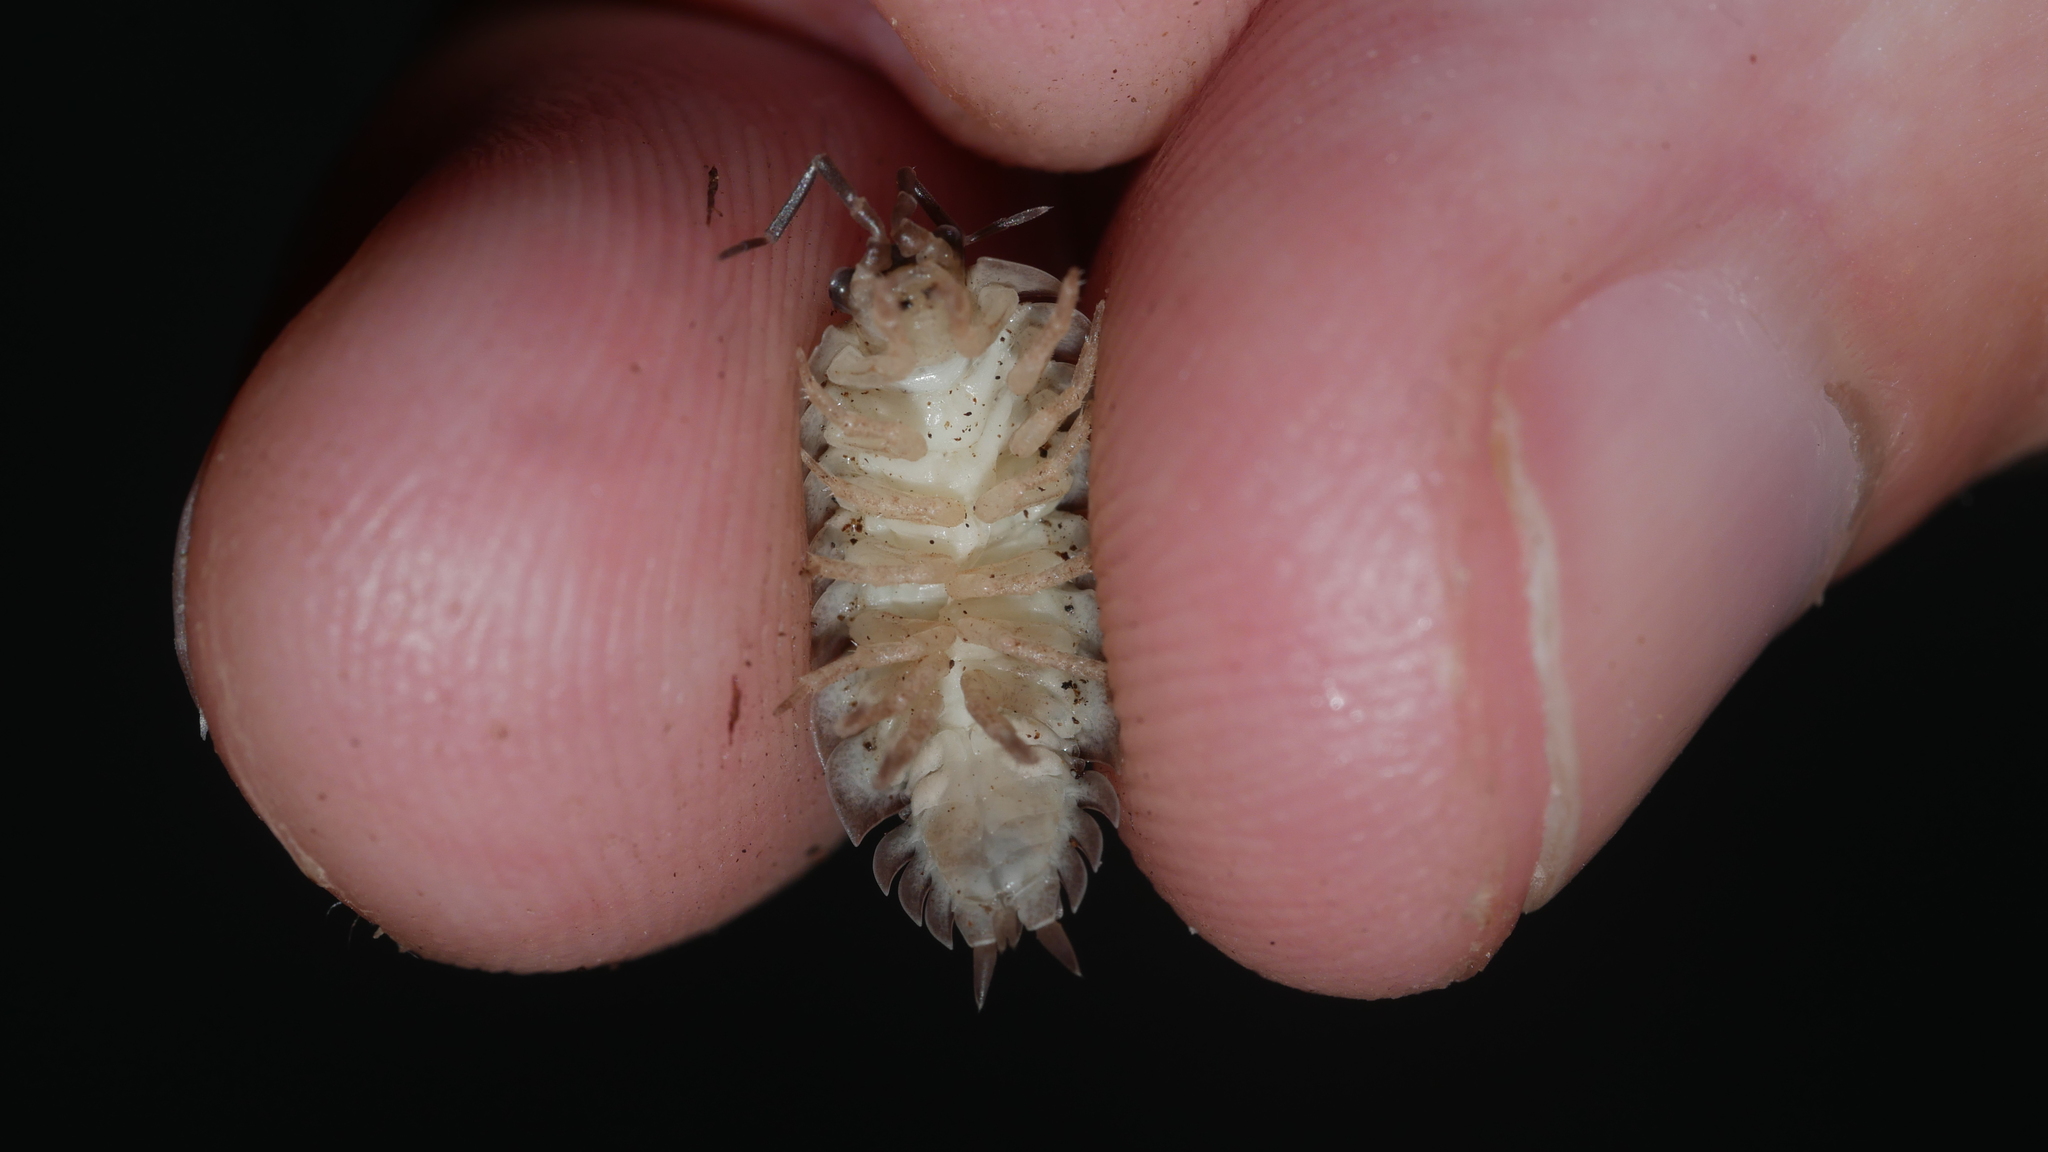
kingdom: Bacteria
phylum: Proteobacteria
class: Gammaproteobacteria
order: Coxiellales
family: Coxiellaceae
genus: Rickettsiella
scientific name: Rickettsiella
